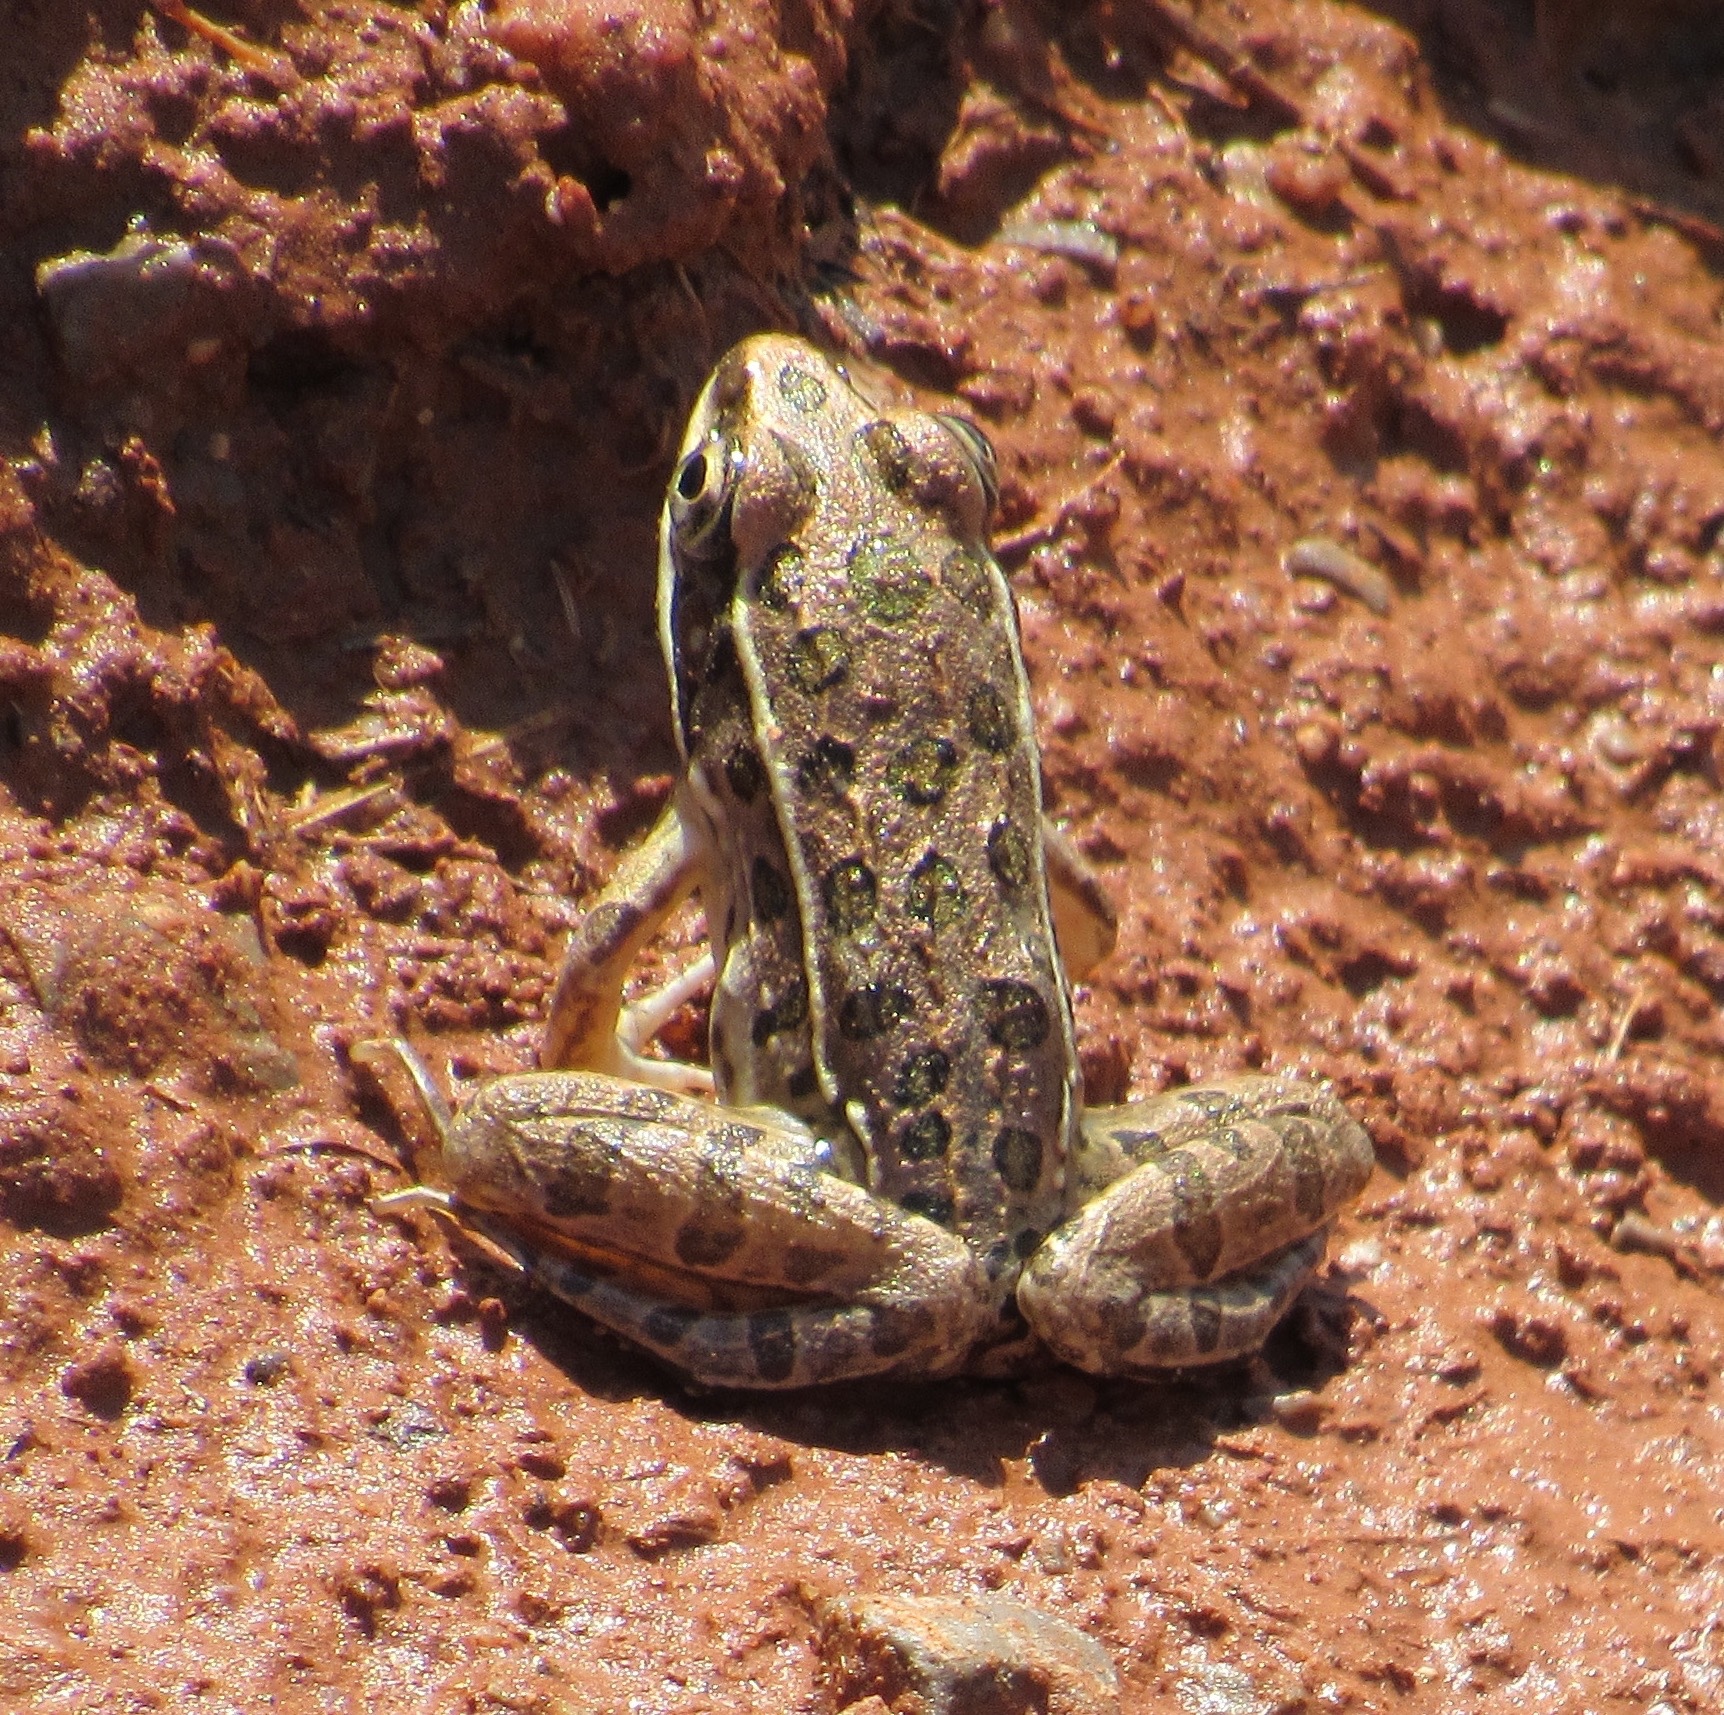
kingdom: Animalia
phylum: Chordata
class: Amphibia
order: Anura
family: Ranidae
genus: Lithobates
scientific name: Lithobates blairi
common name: Plains leopard frog
